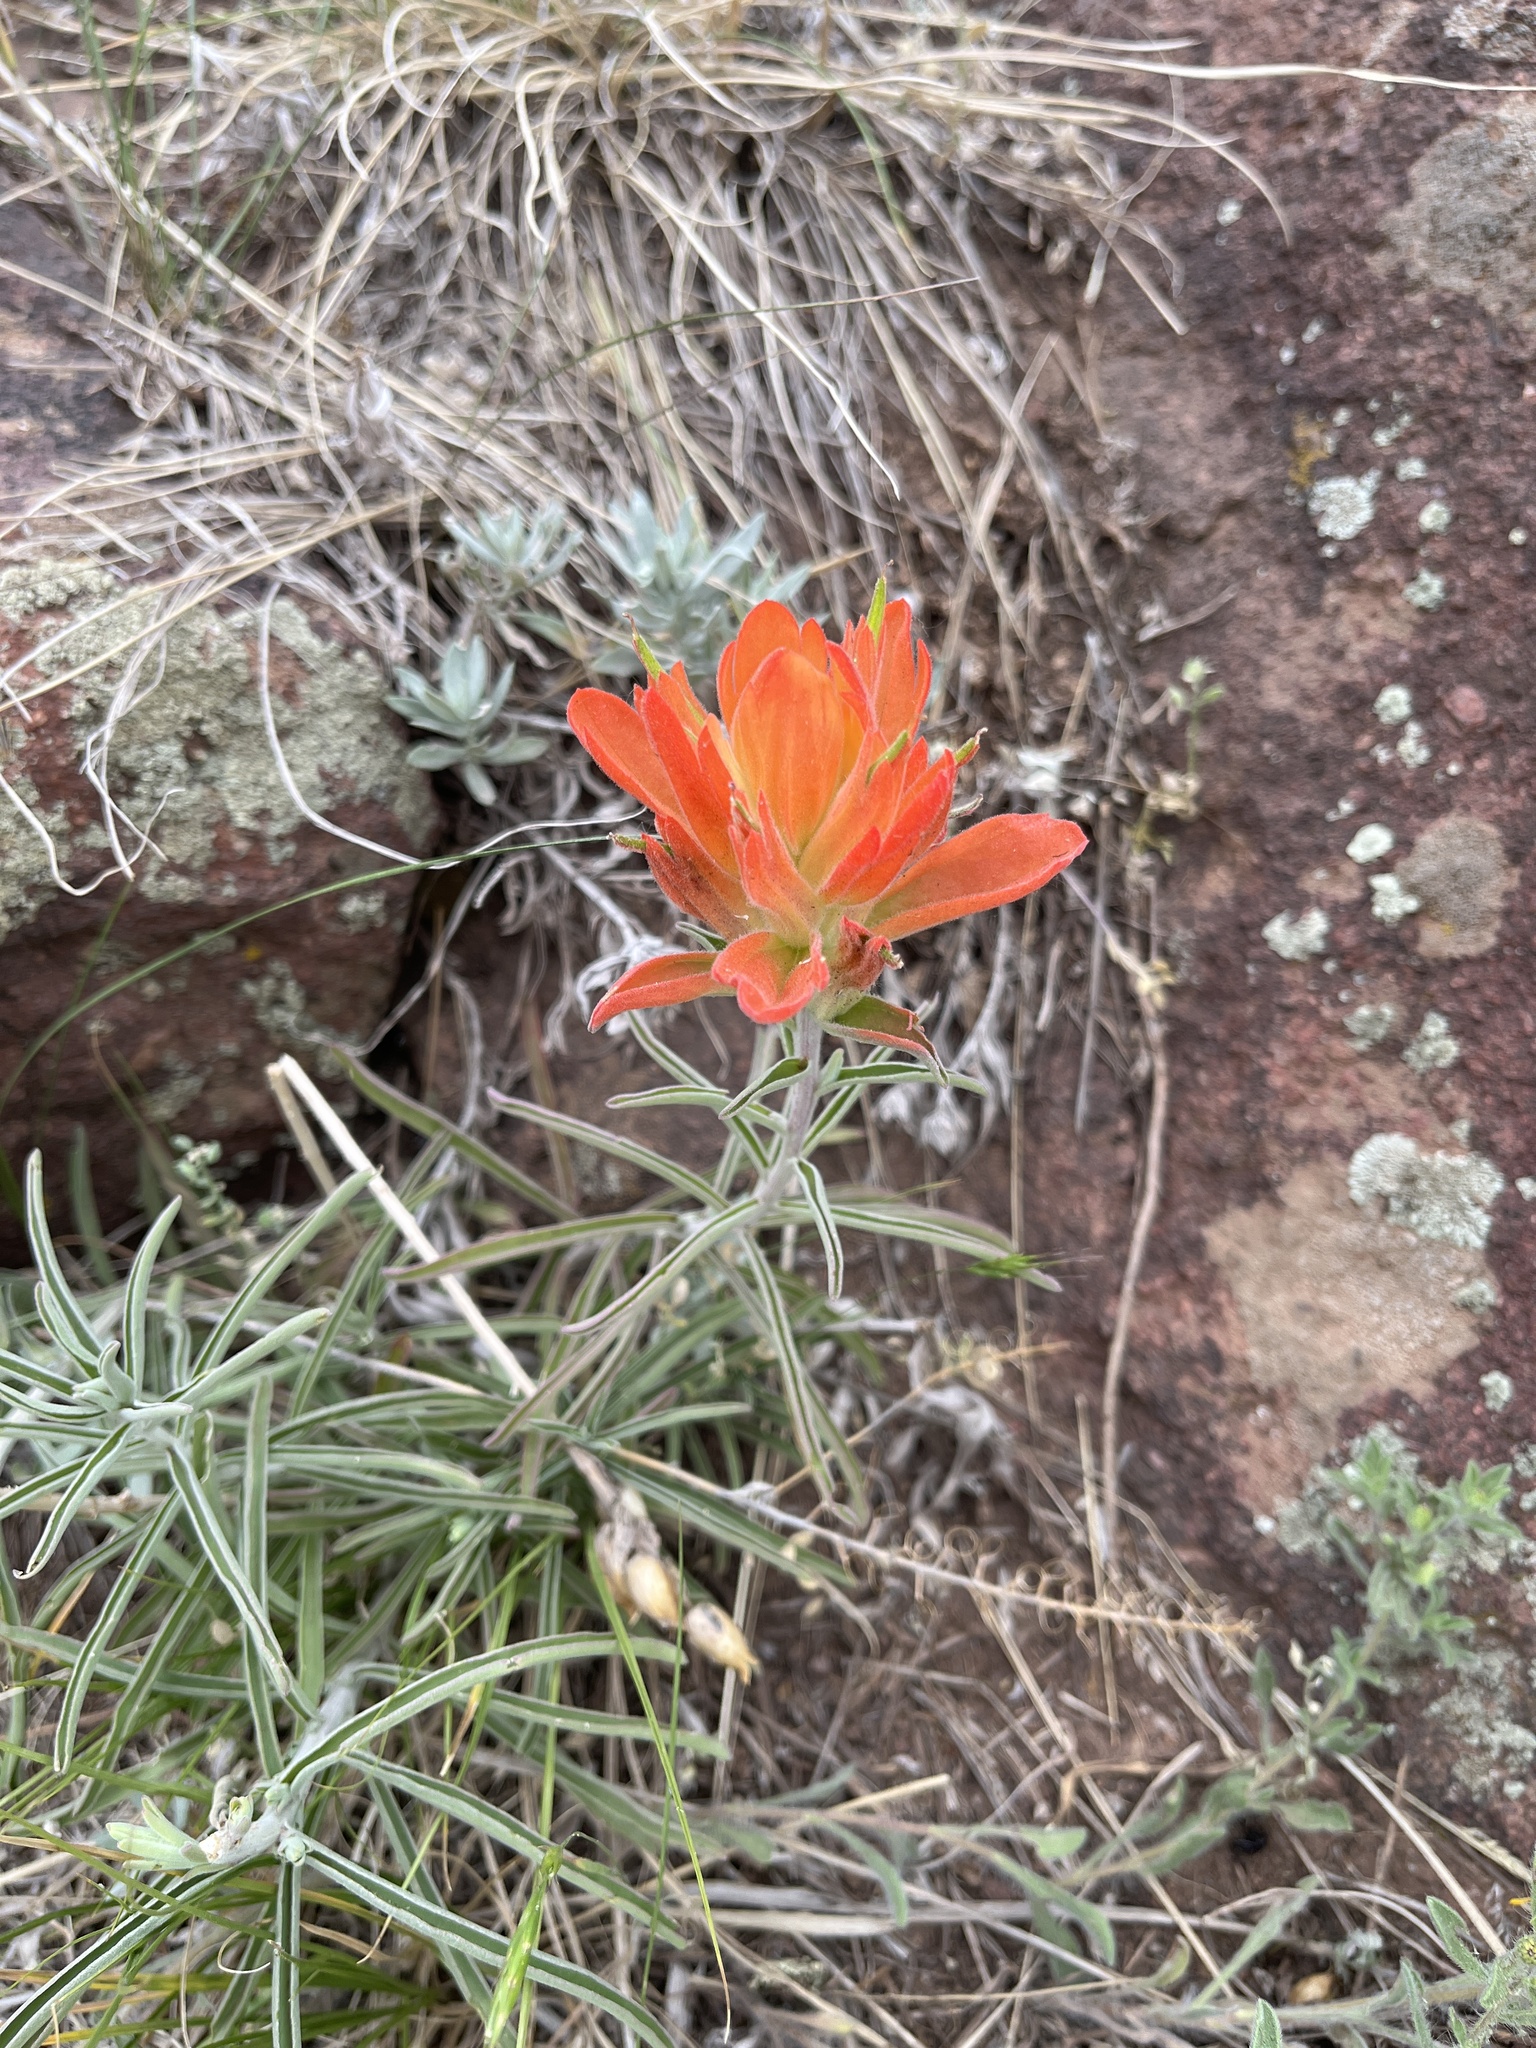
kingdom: Plantae
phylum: Tracheophyta
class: Magnoliopsida
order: Lamiales
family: Orobanchaceae
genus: Castilleja
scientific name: Castilleja integra
